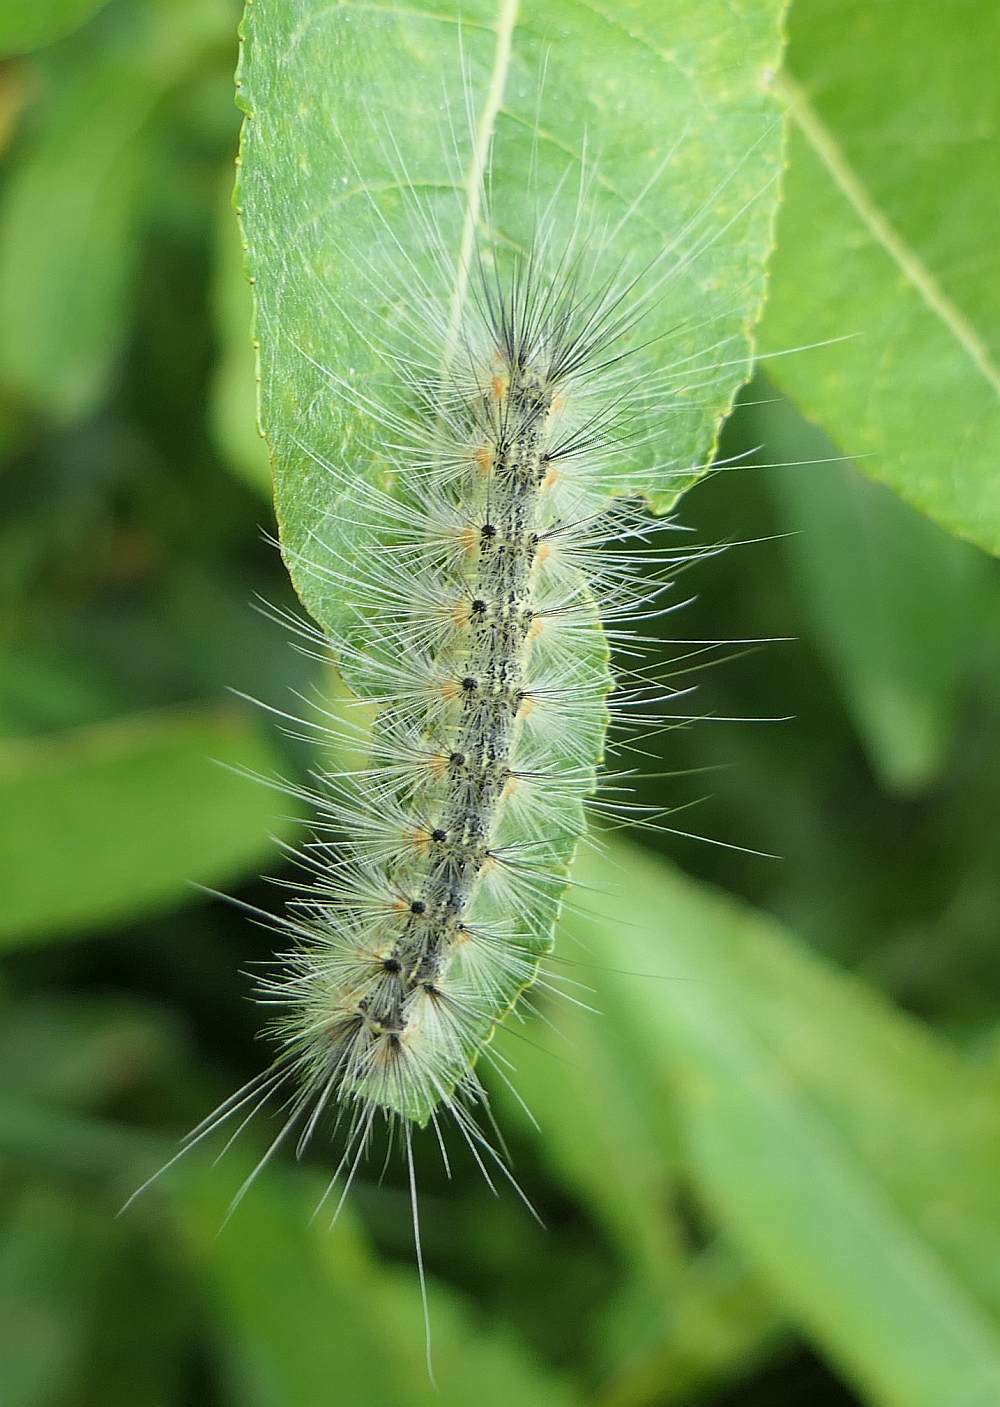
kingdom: Animalia
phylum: Arthropoda
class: Insecta
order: Lepidoptera
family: Erebidae
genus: Hyphantria
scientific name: Hyphantria cunea
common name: American white moth
